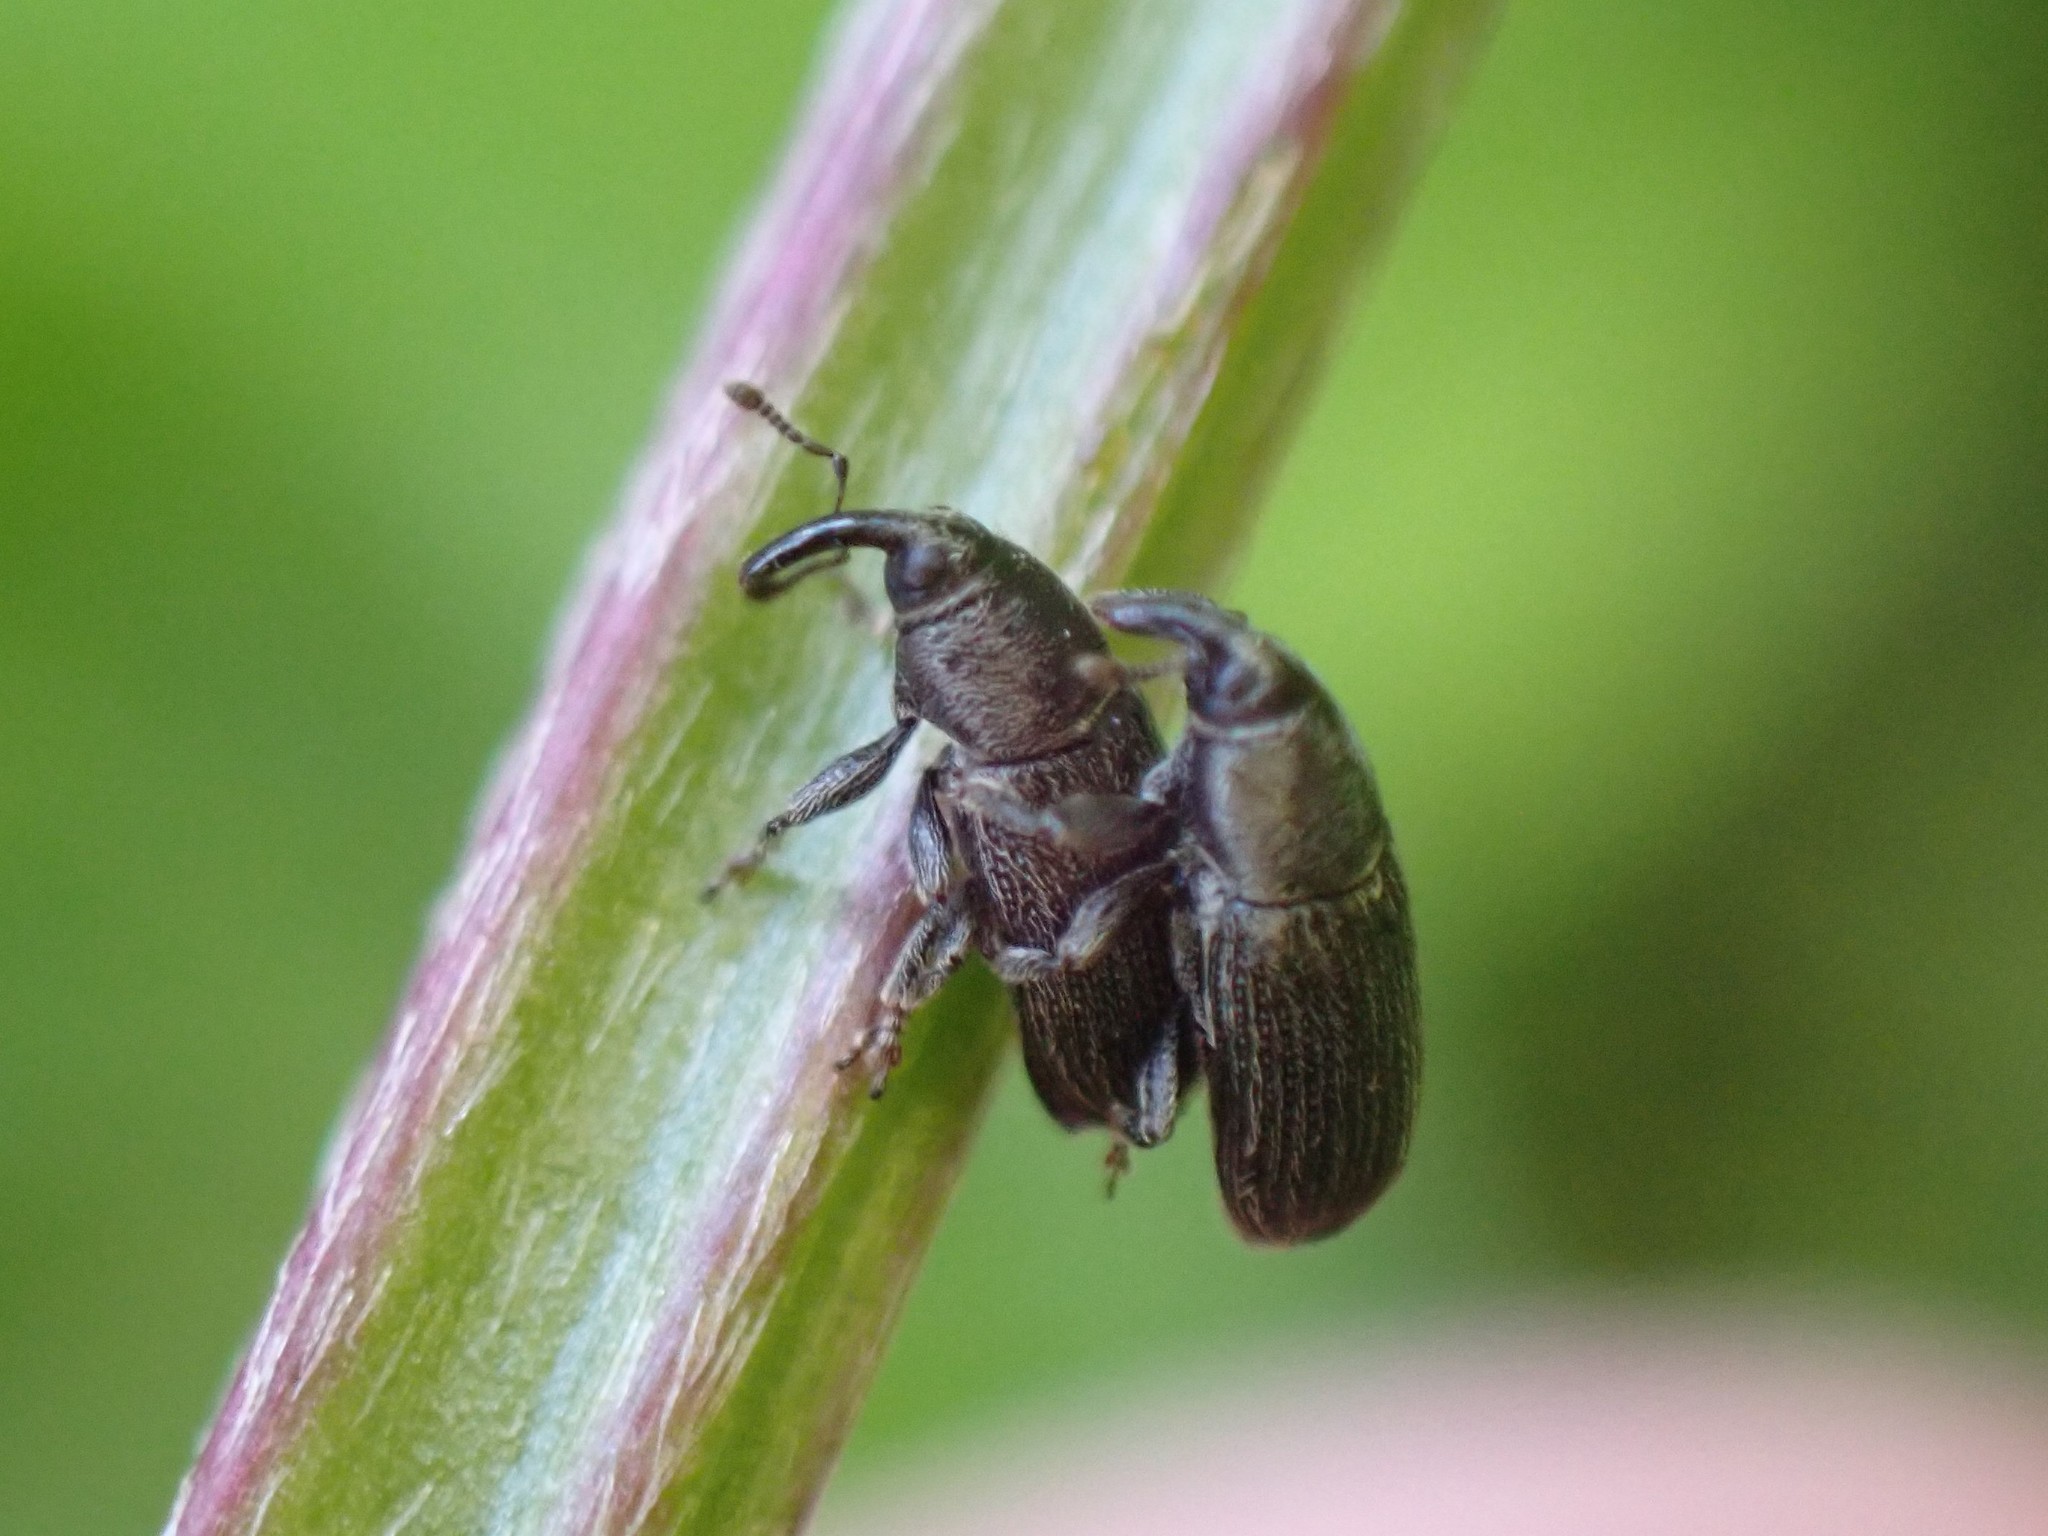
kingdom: Animalia
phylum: Arthropoda
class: Insecta
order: Coleoptera
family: Curculionidae
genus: Mecinus
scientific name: Mecinus pyraster
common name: Weevil
